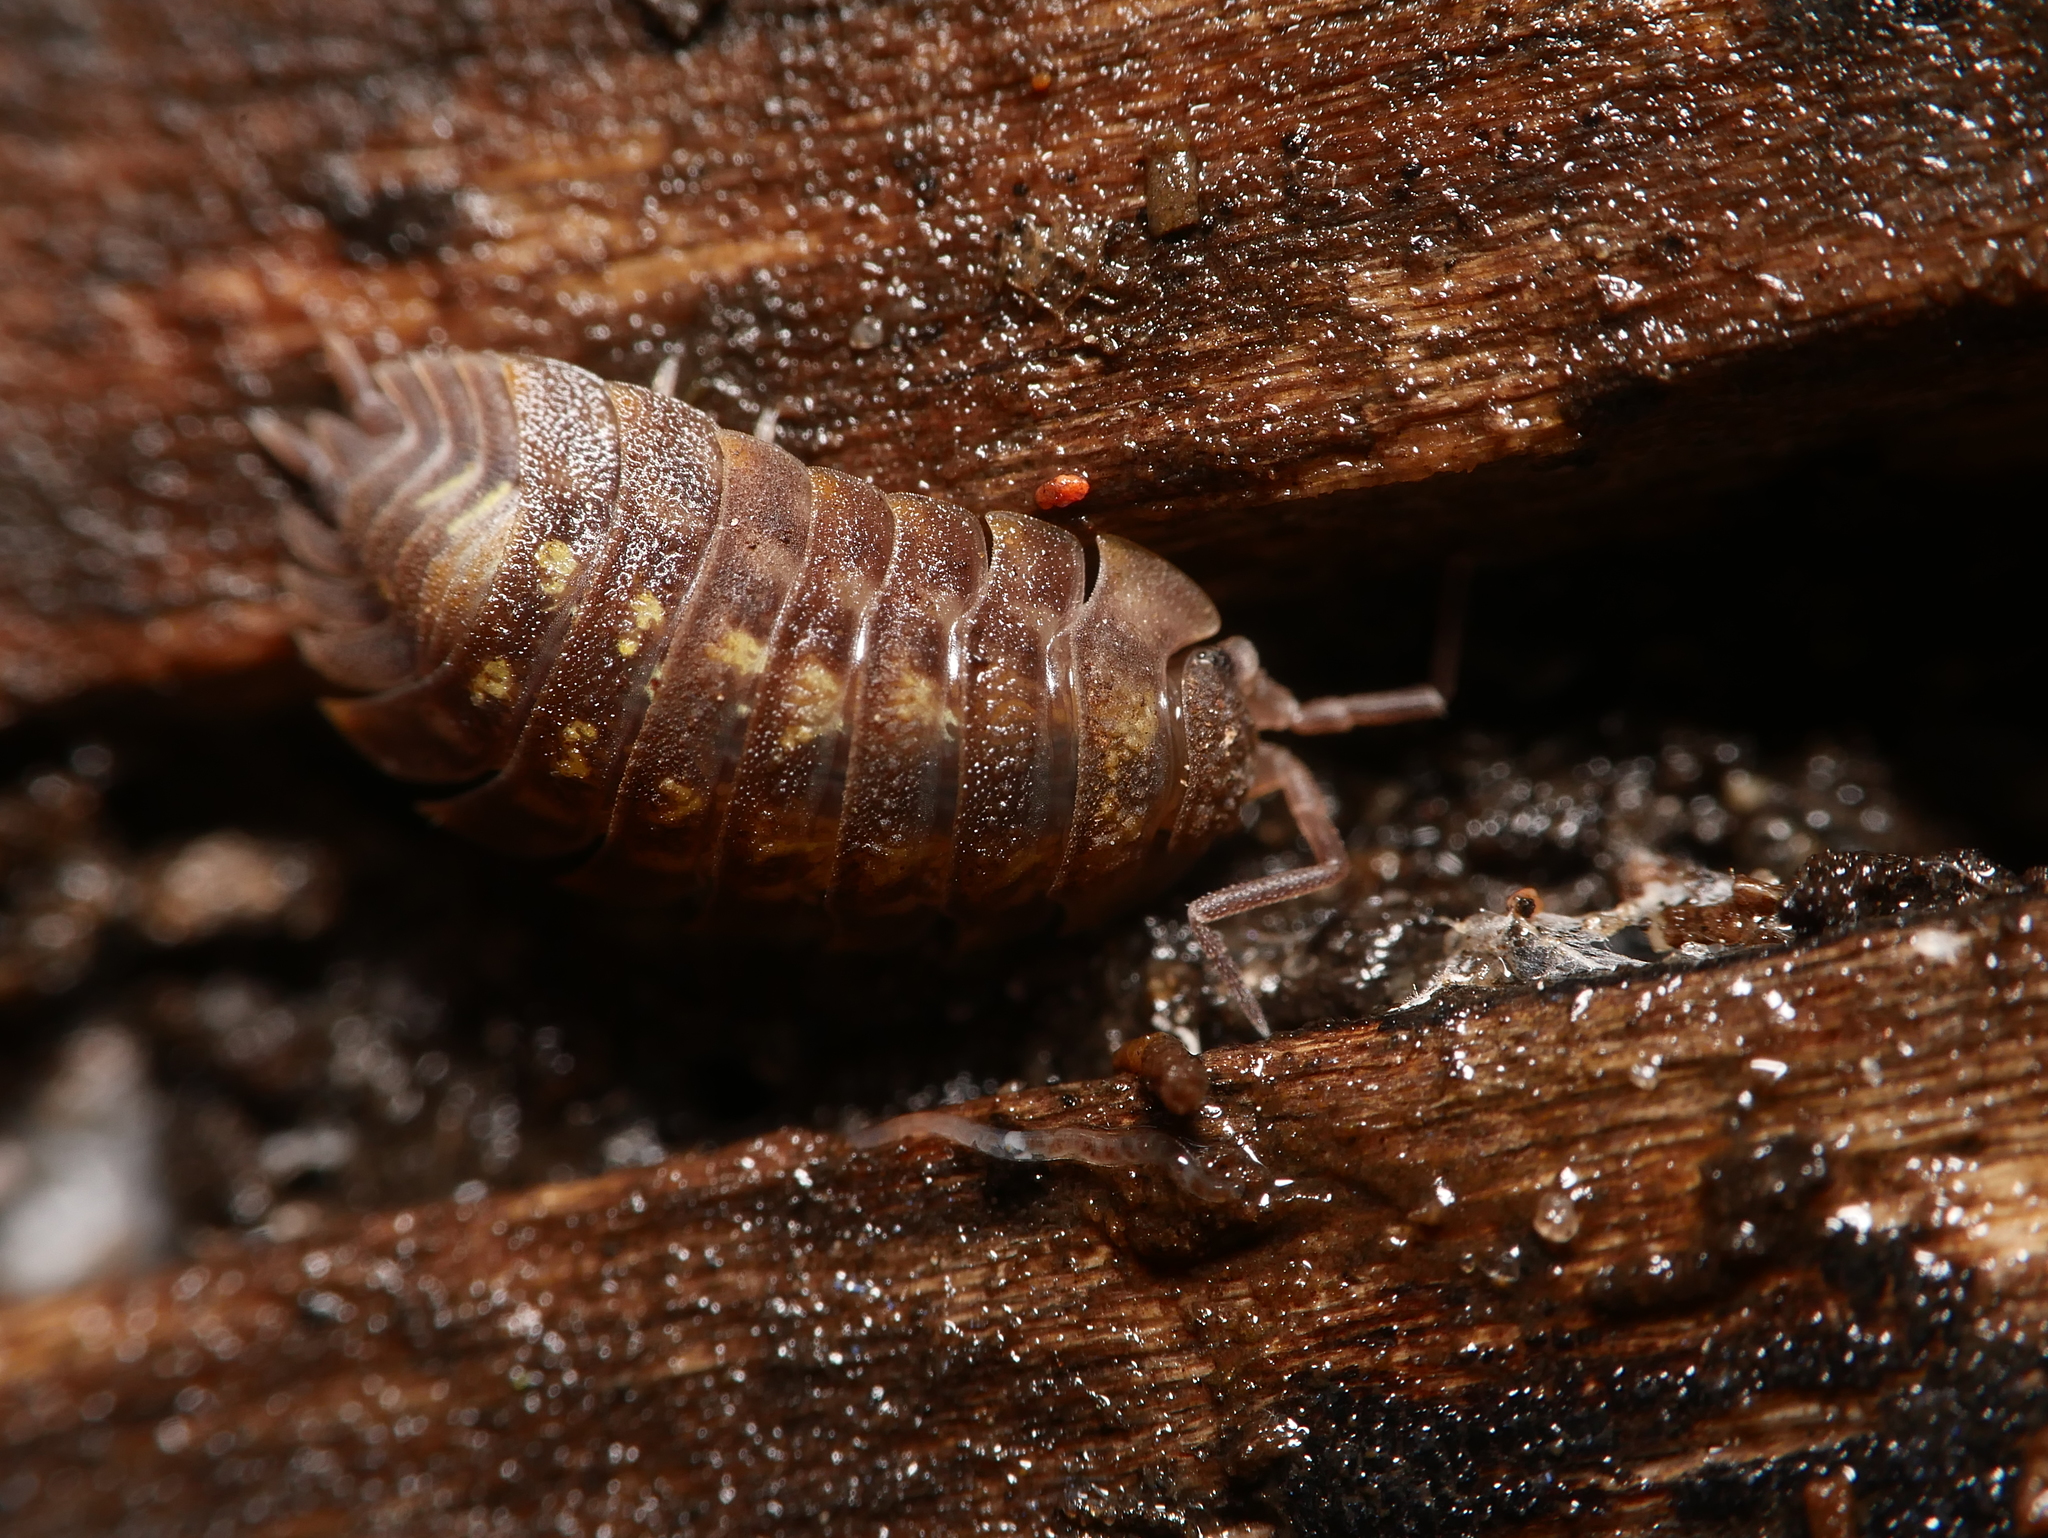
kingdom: Animalia
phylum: Arthropoda
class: Malacostraca
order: Isopoda
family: Oniscidae
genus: Oniscus
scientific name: Oniscus asellus
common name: Common shiny woodlouse
